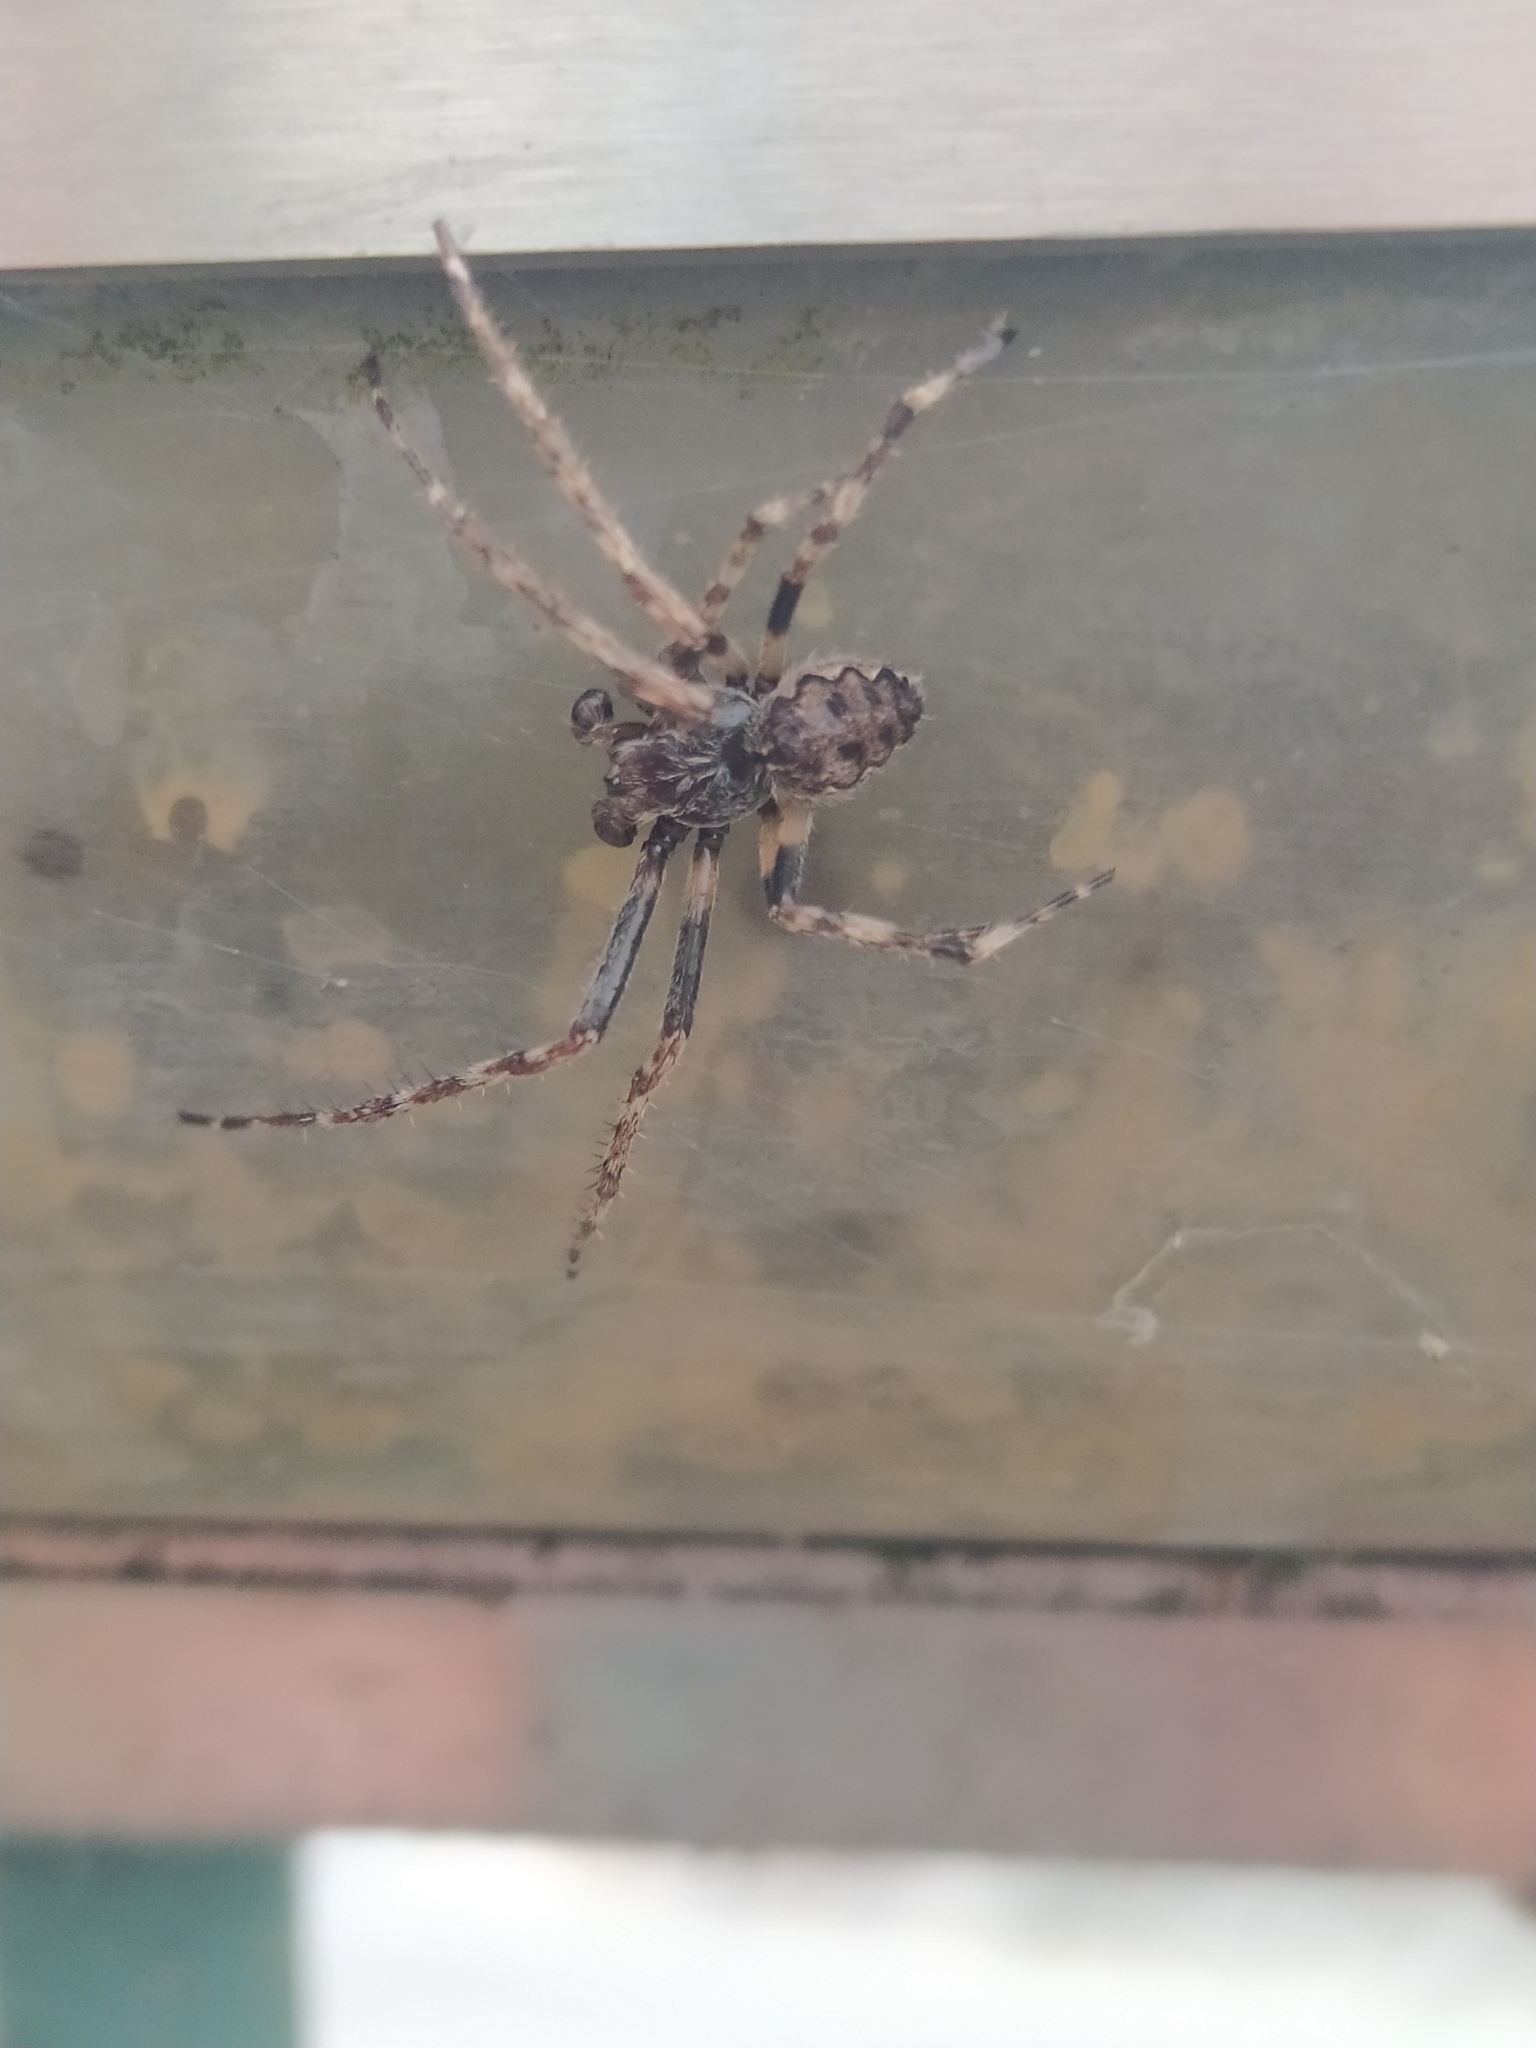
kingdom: Animalia
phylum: Arthropoda
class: Arachnida
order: Araneae
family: Araneidae
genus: Nuctenea
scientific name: Nuctenea umbratica
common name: Toad spider
